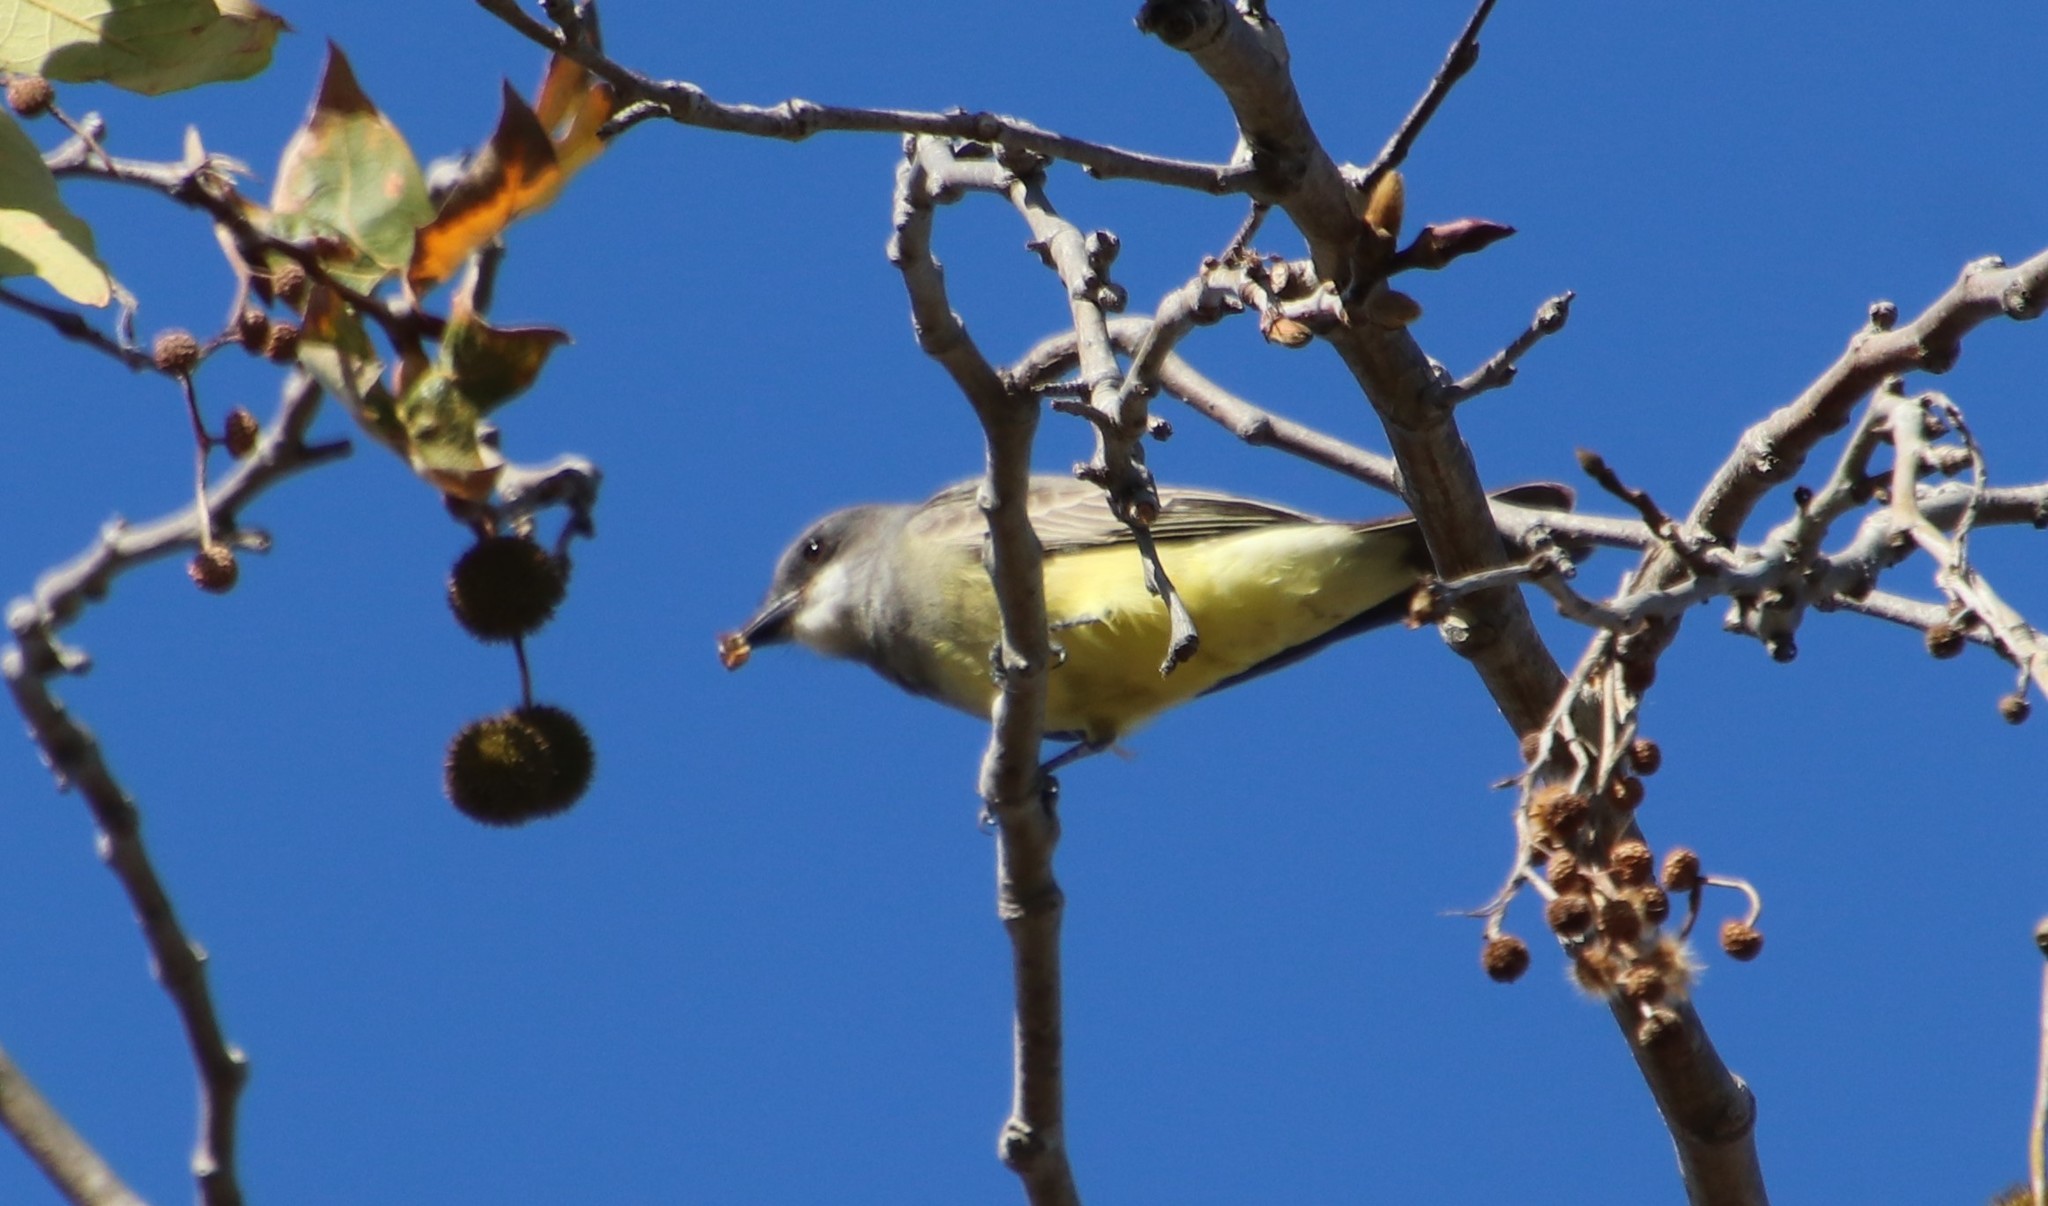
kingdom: Animalia
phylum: Chordata
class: Aves
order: Passeriformes
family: Tyrannidae
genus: Tyrannus
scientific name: Tyrannus vociferans
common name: Cassin's kingbird
